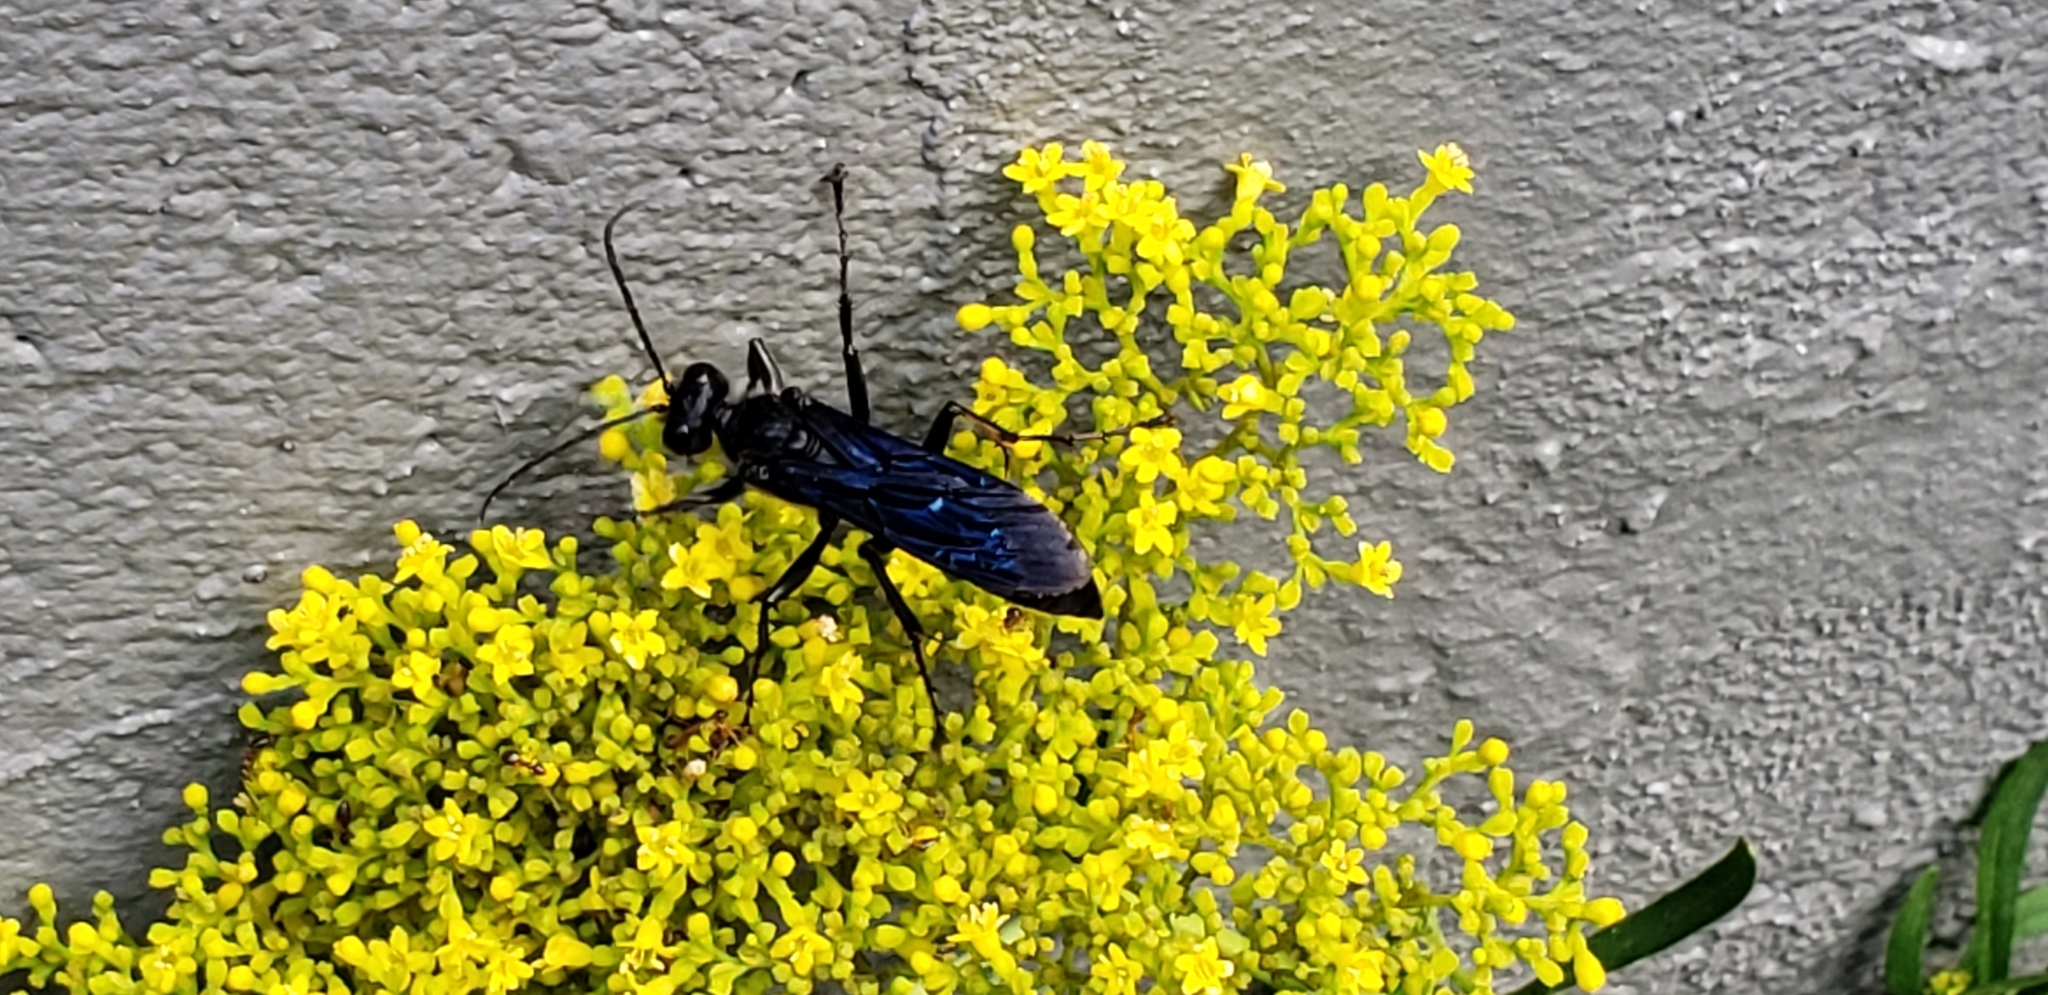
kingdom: Animalia
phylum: Arthropoda
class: Insecta
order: Hymenoptera
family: Sphecidae
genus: Sphex
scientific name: Sphex pensylvanicus
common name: Great black digger wasp
